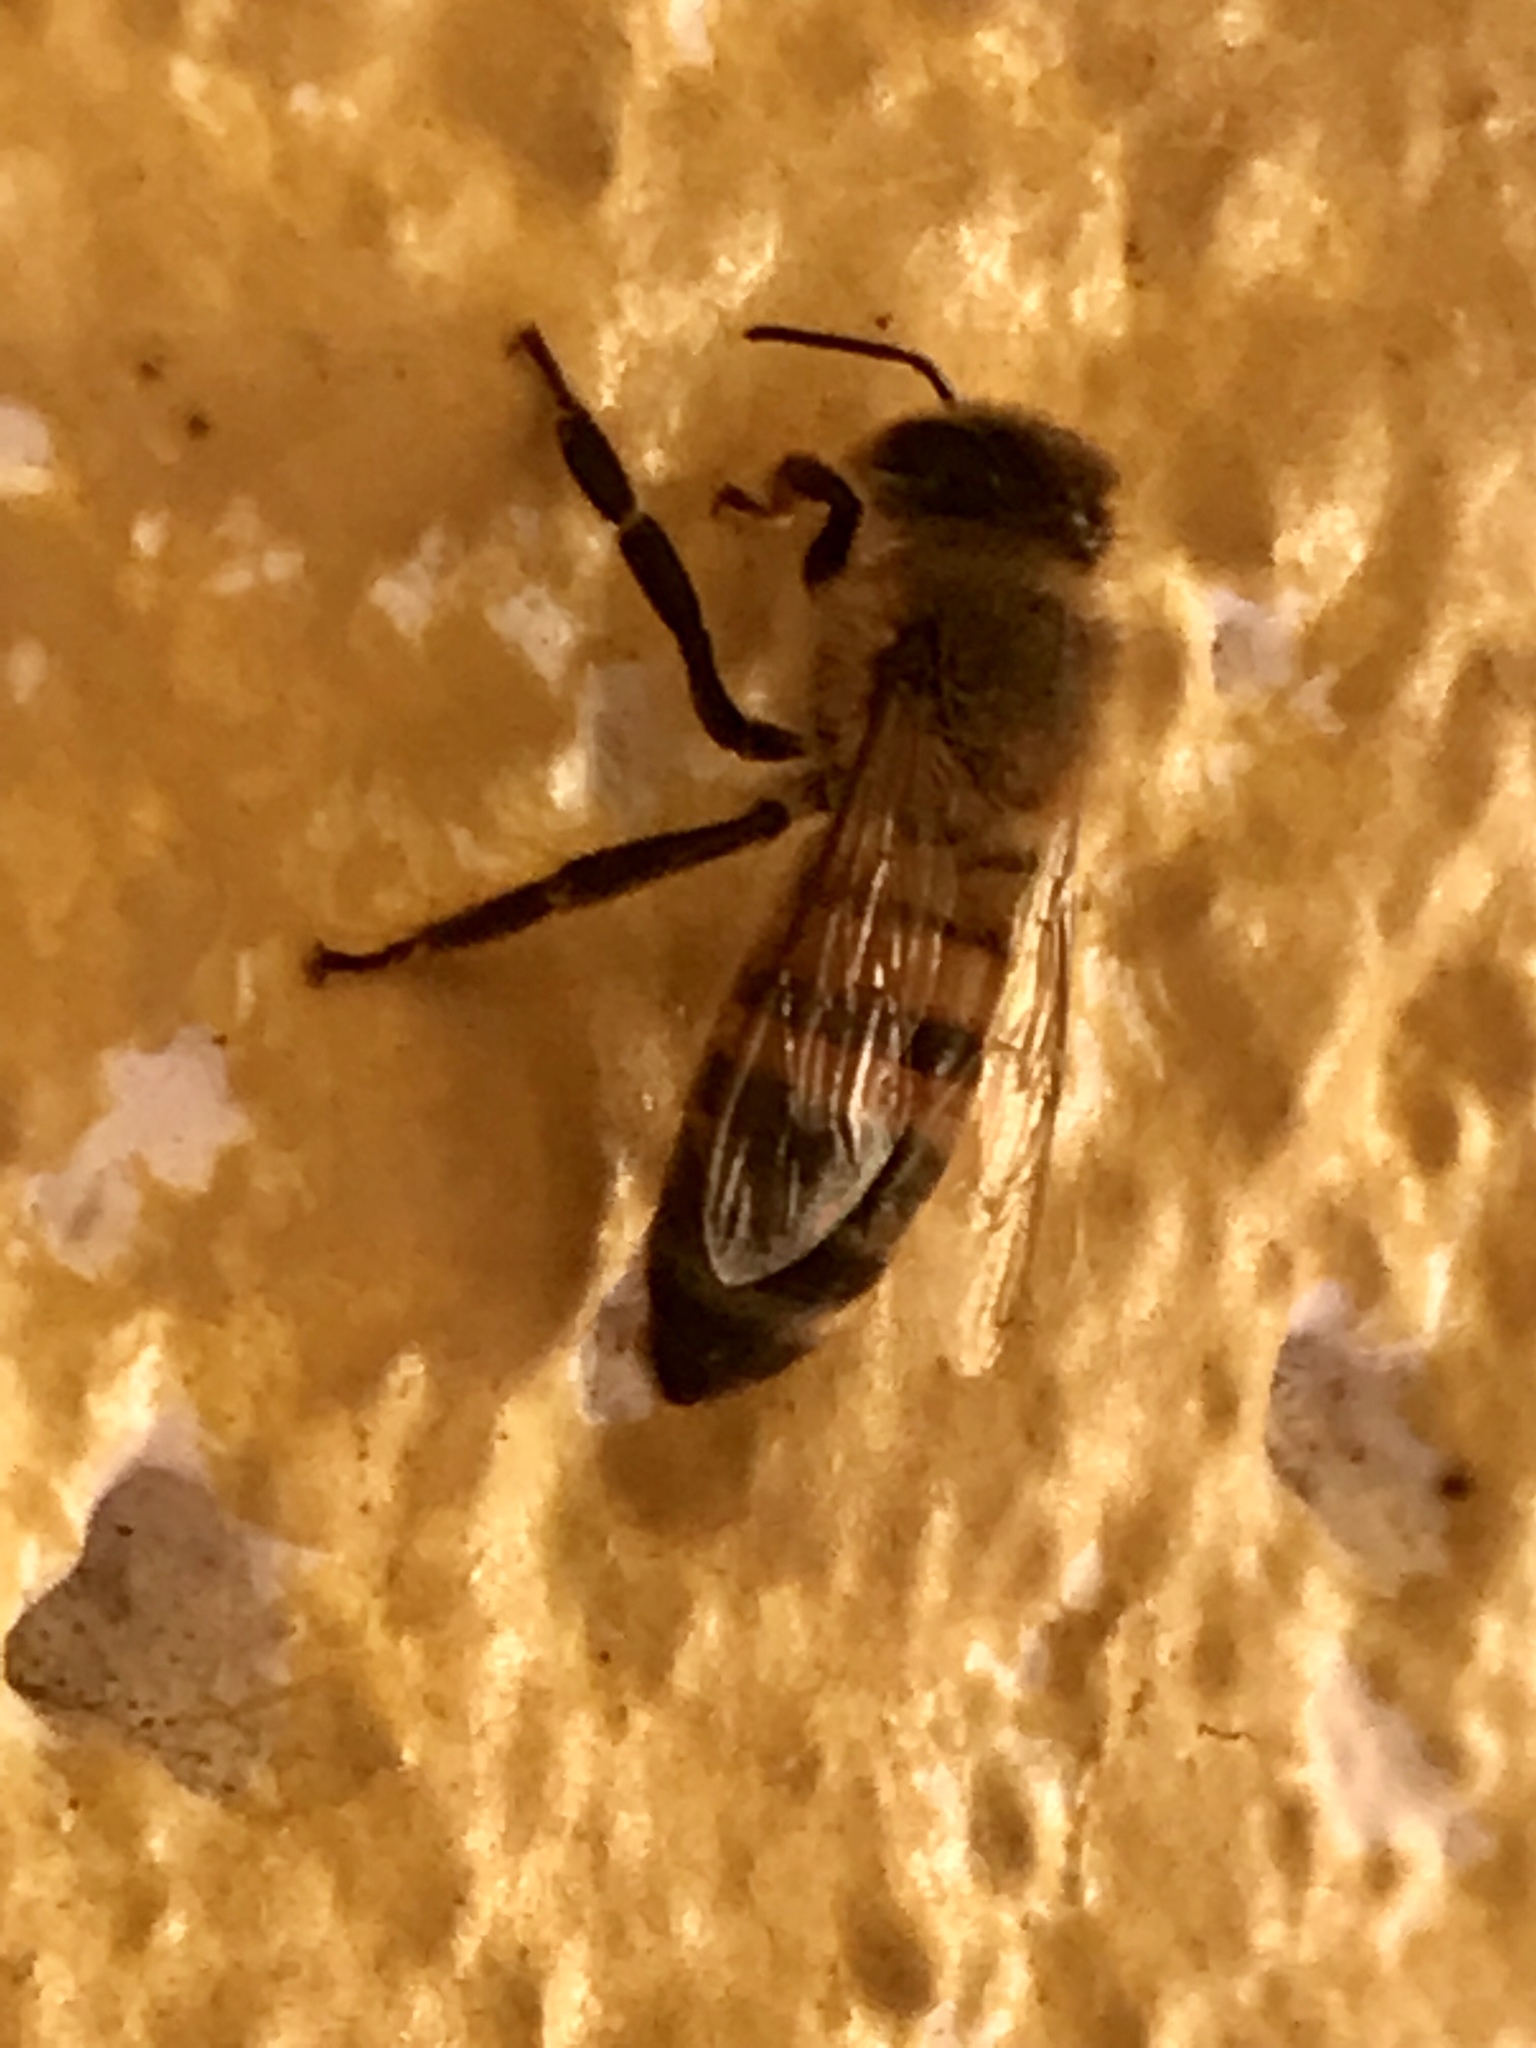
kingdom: Animalia
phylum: Arthropoda
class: Insecta
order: Hymenoptera
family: Apidae
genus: Apis
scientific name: Apis mellifera
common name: Honey bee
